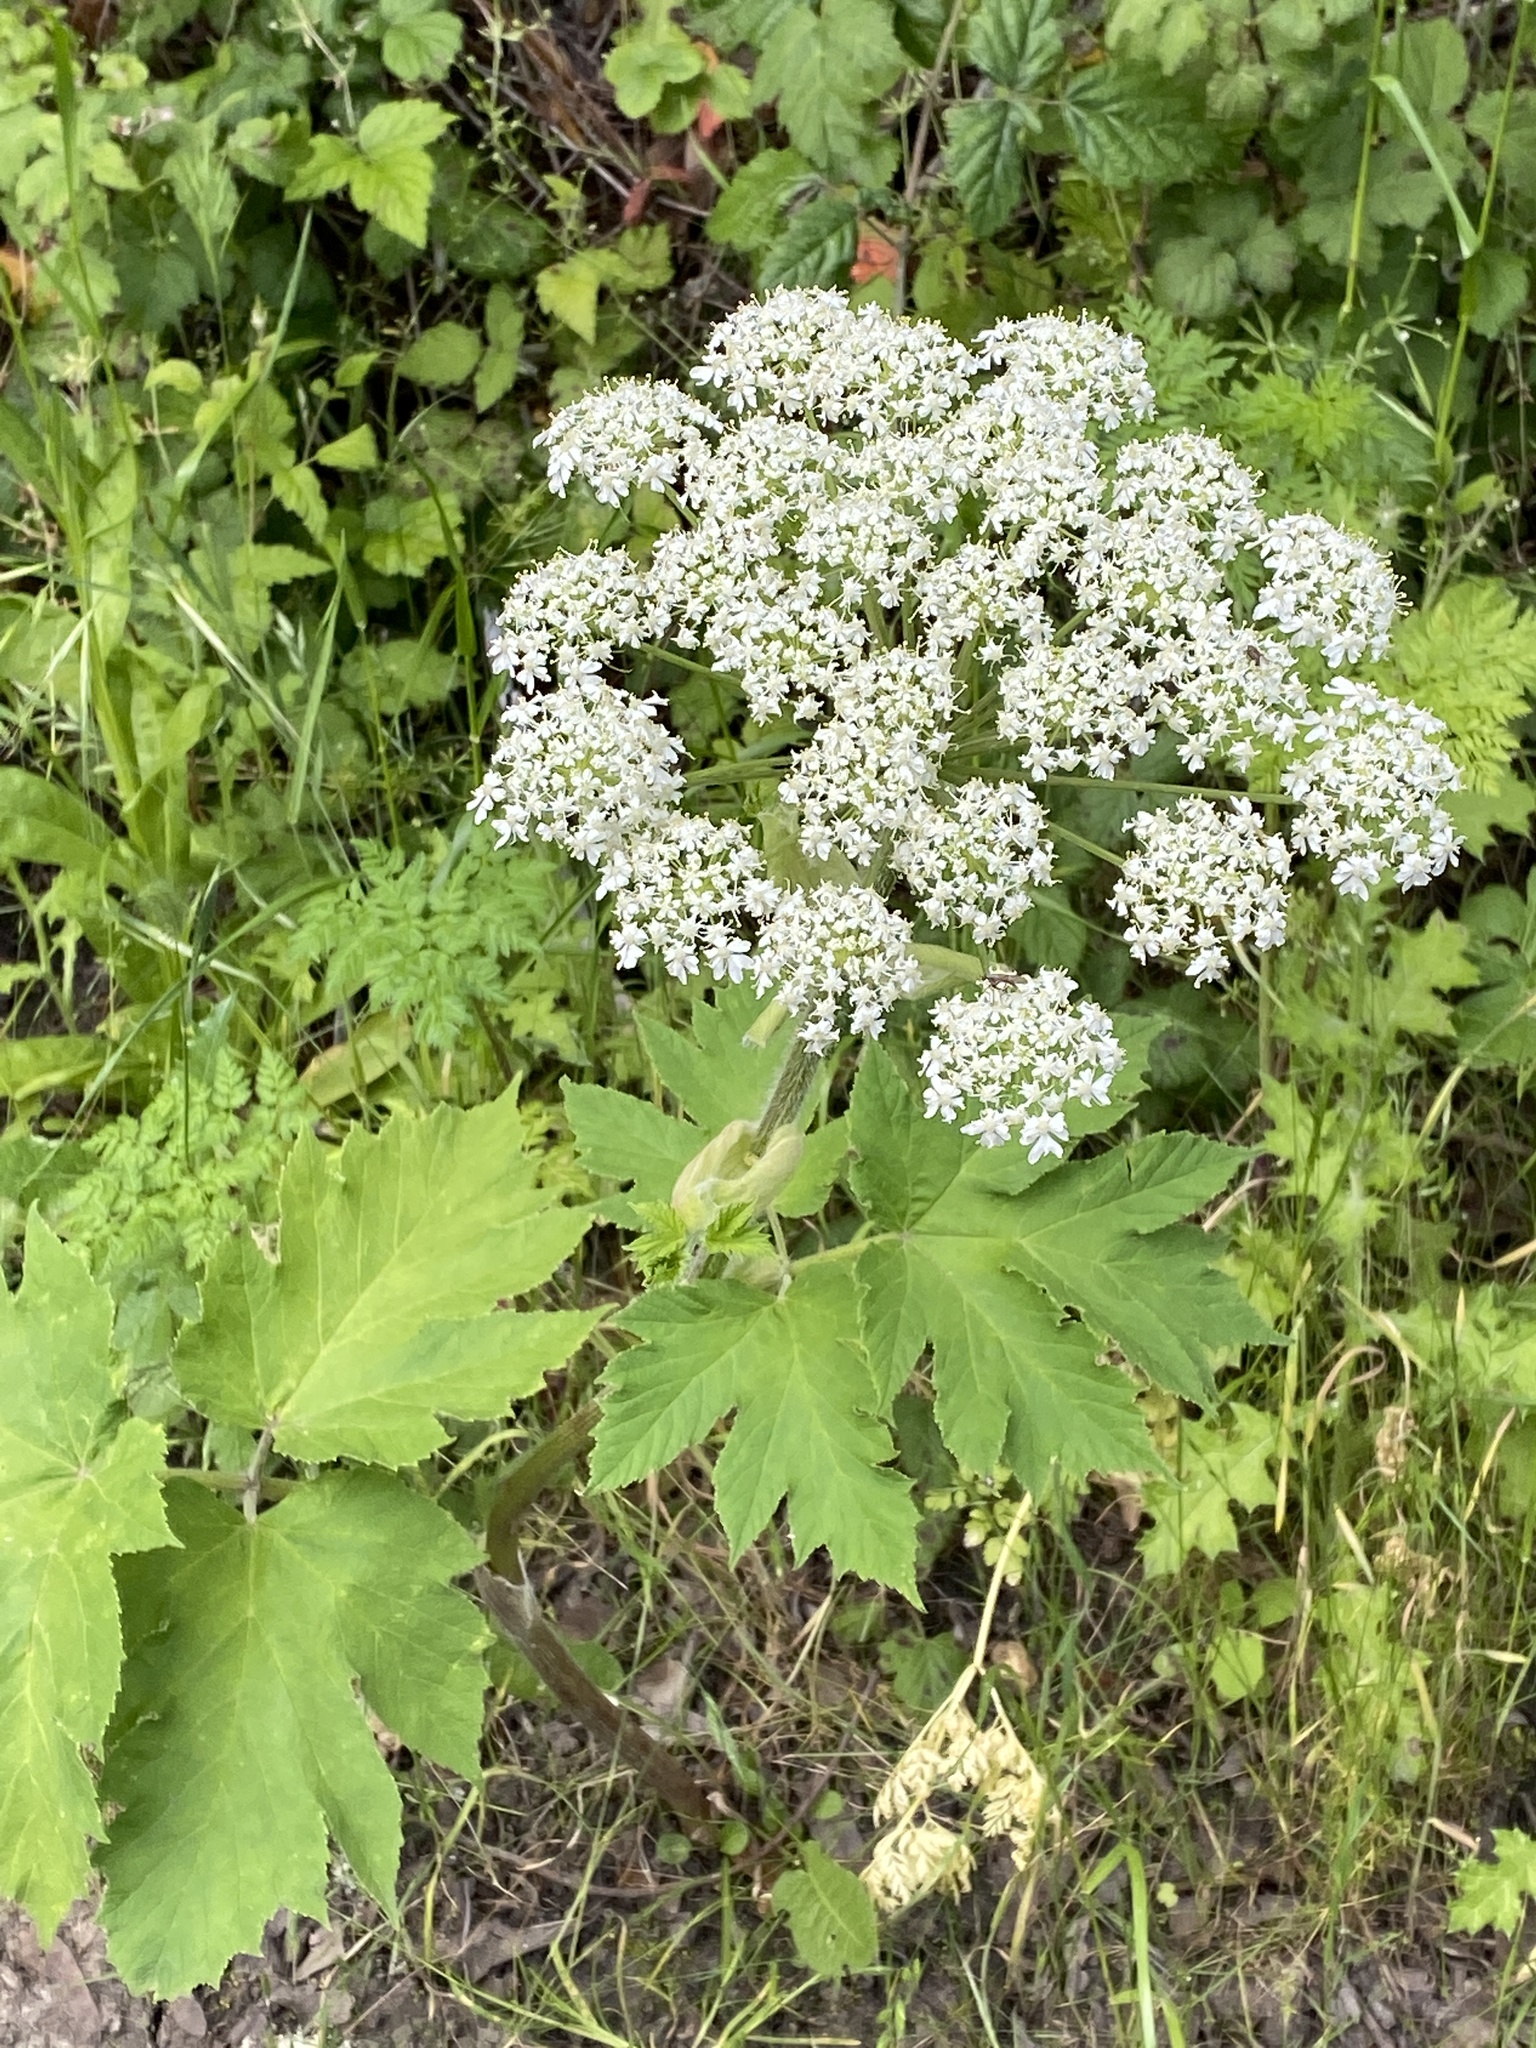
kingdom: Plantae
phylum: Tracheophyta
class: Magnoliopsida
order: Apiales
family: Apiaceae
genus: Heracleum
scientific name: Heracleum maximum
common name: American cow parsnip
